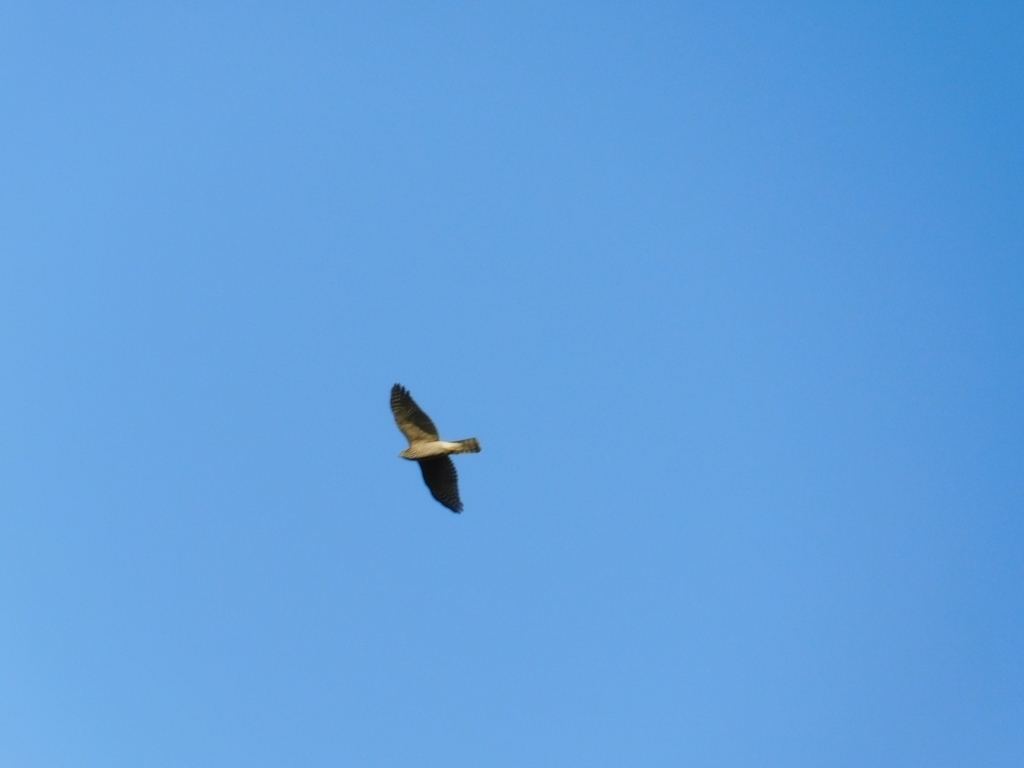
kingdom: Animalia
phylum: Chordata
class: Aves
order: Accipitriformes
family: Accipitridae
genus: Accipiter
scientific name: Accipiter nisus
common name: Eurasian sparrowhawk
